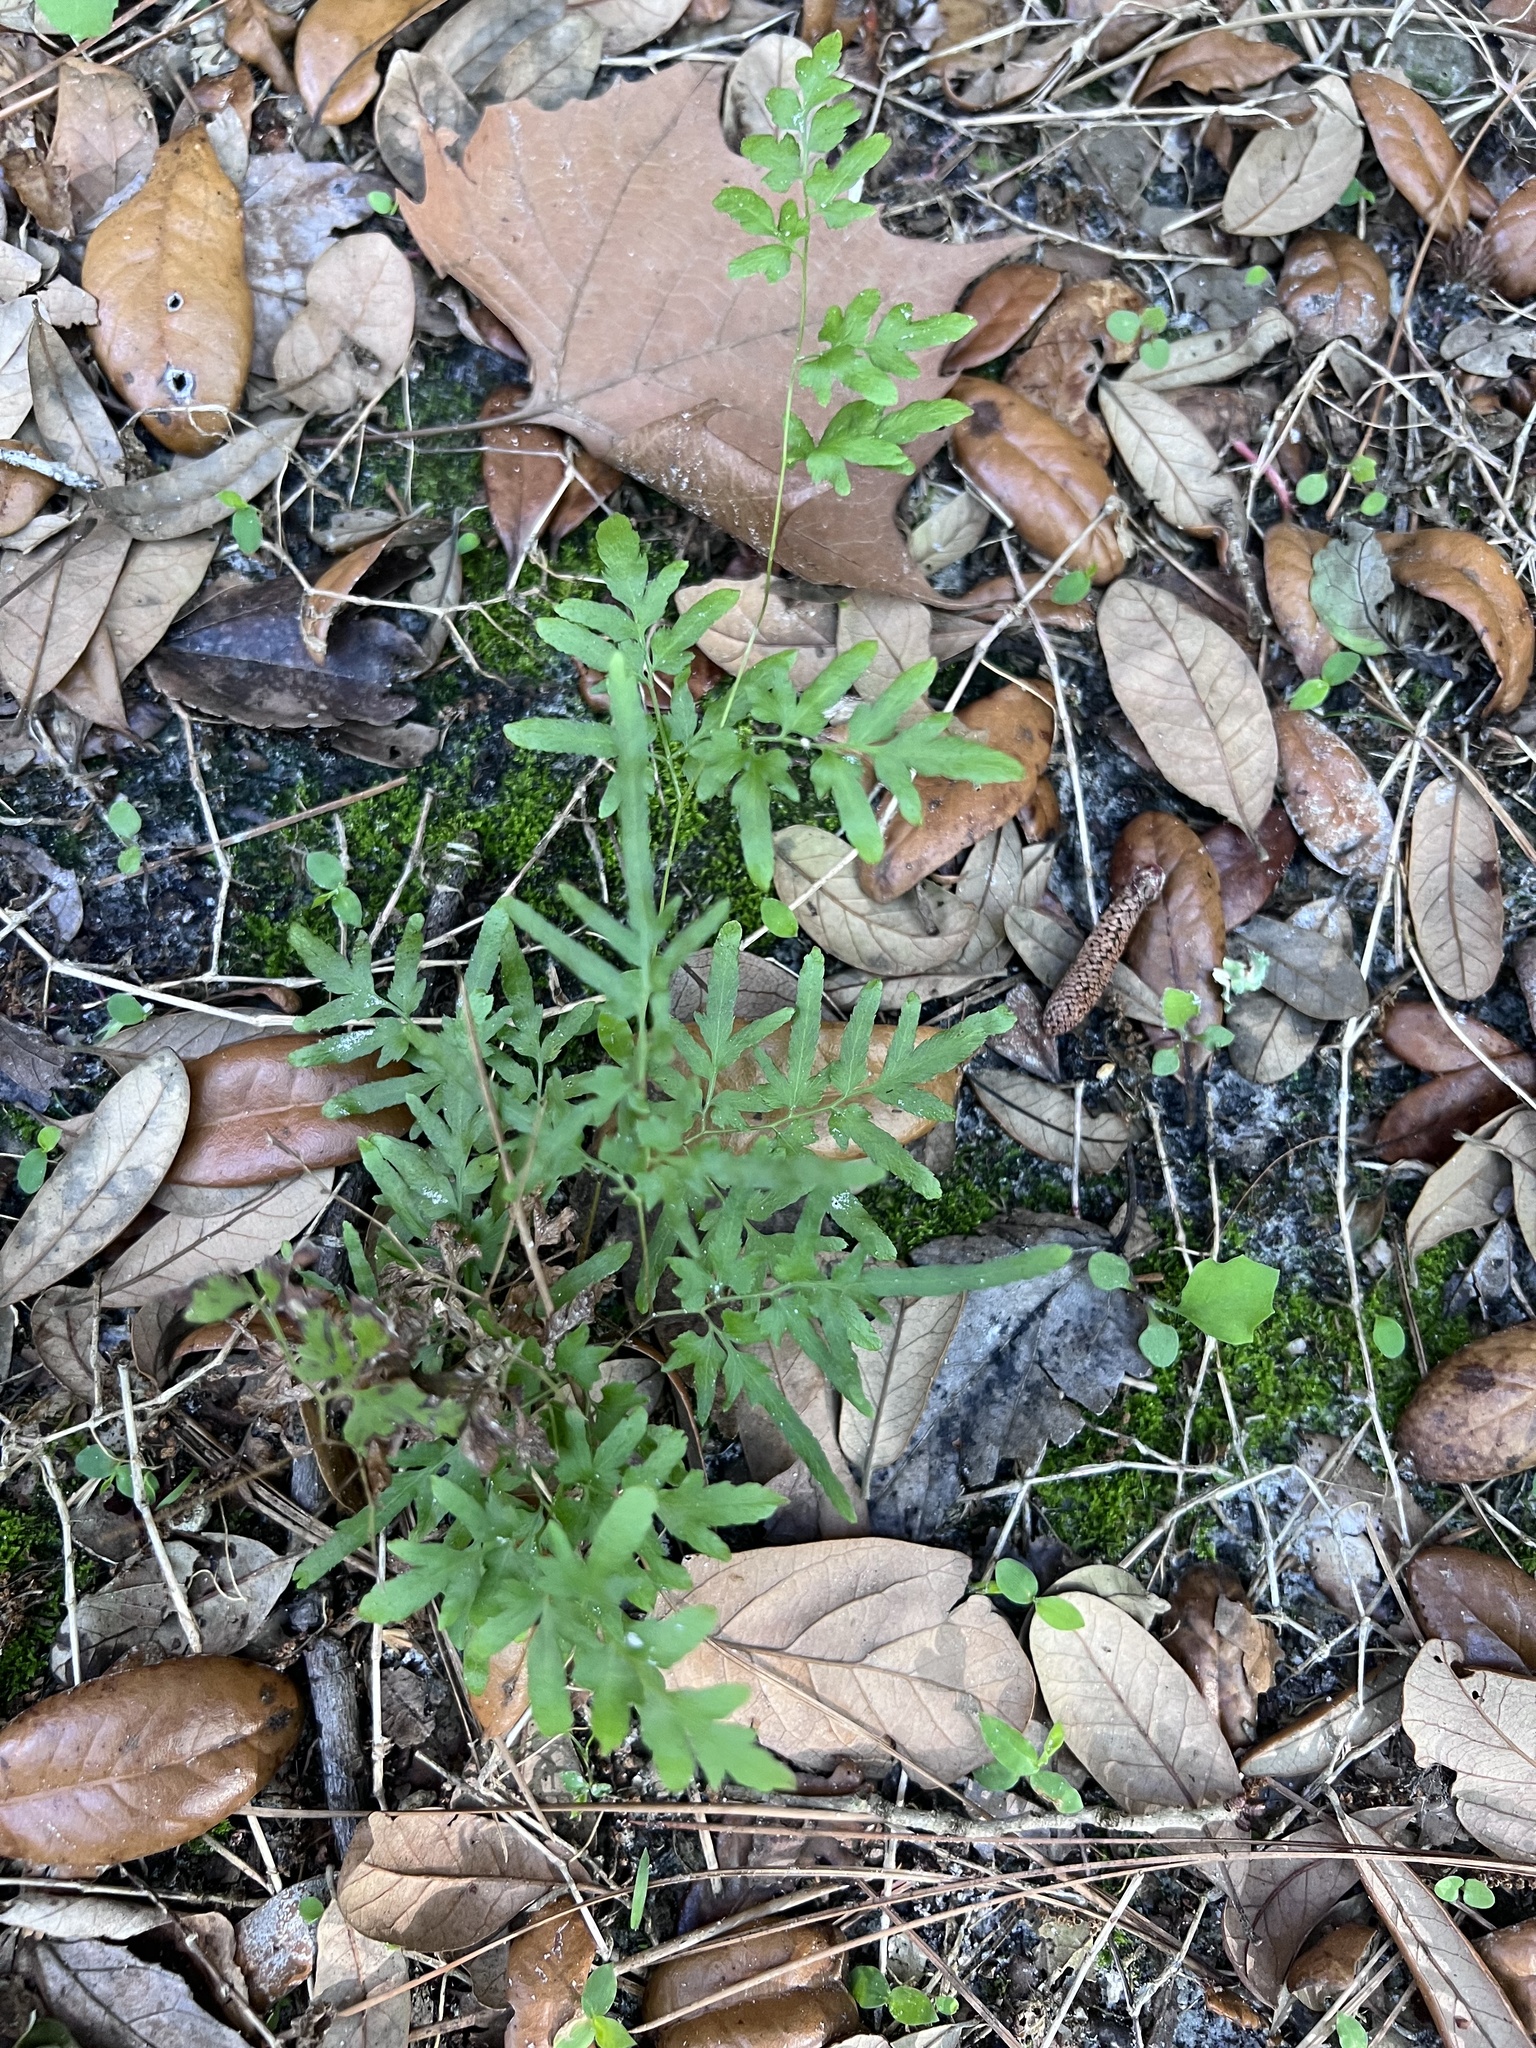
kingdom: Plantae
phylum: Tracheophyta
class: Polypodiopsida
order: Schizaeales
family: Lygodiaceae
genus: Lygodium
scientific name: Lygodium japonicum
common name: Japanese climbing fern
